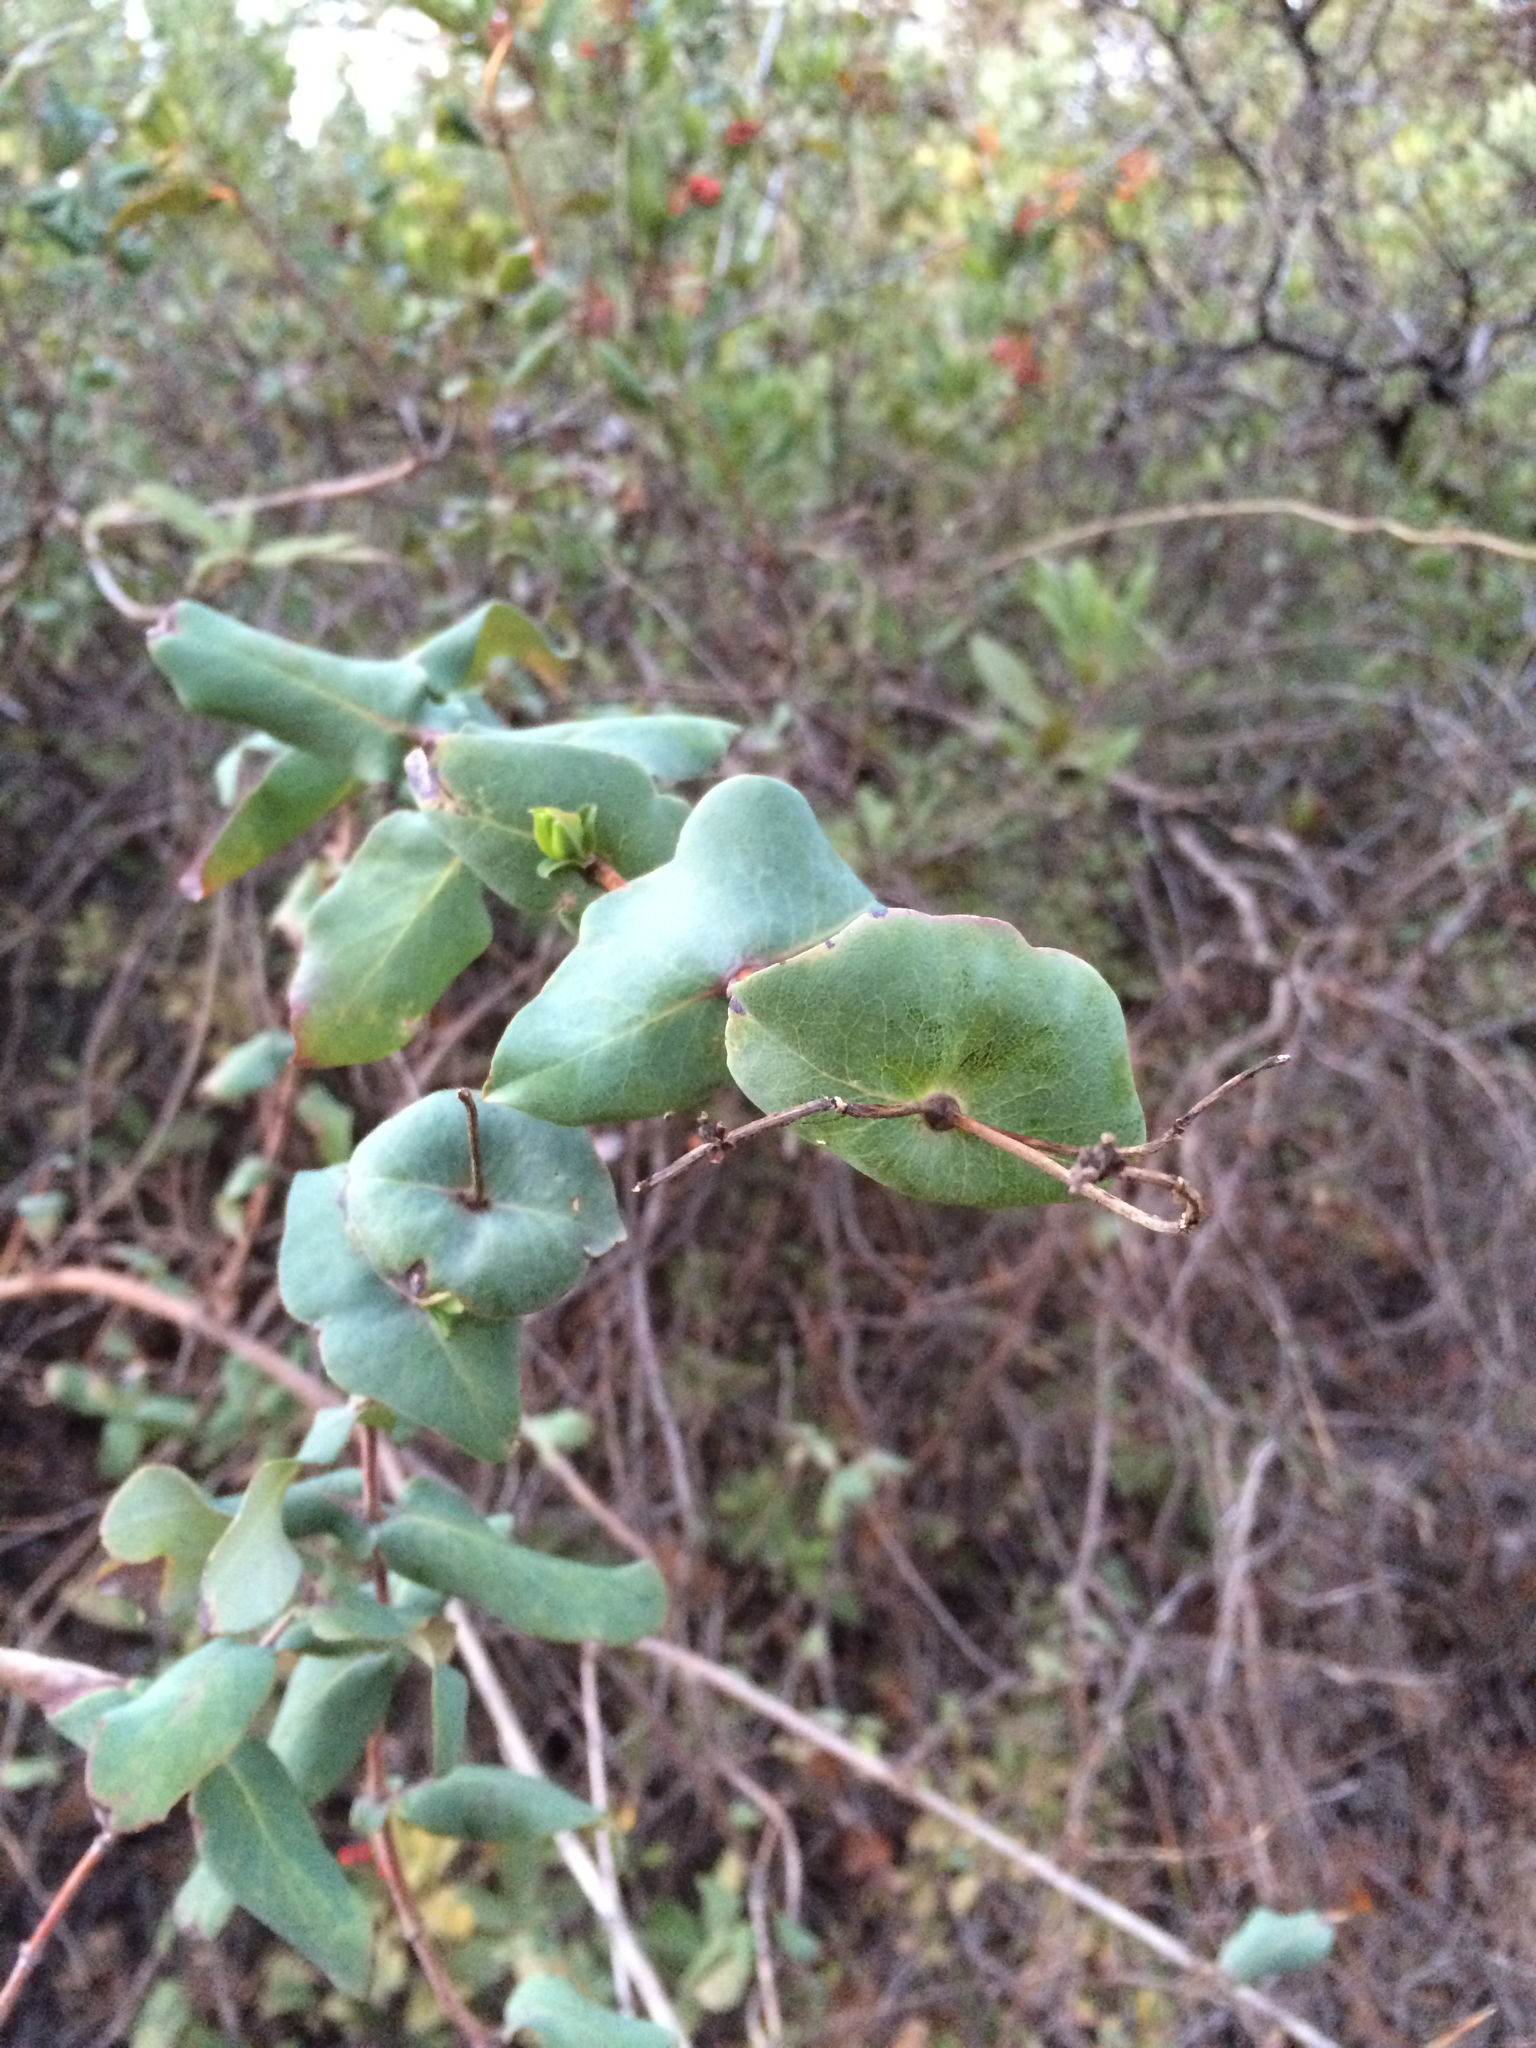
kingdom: Plantae
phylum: Tracheophyta
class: Magnoliopsida
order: Dipsacales
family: Caprifoliaceae
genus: Lonicera
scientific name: Lonicera hispidula
